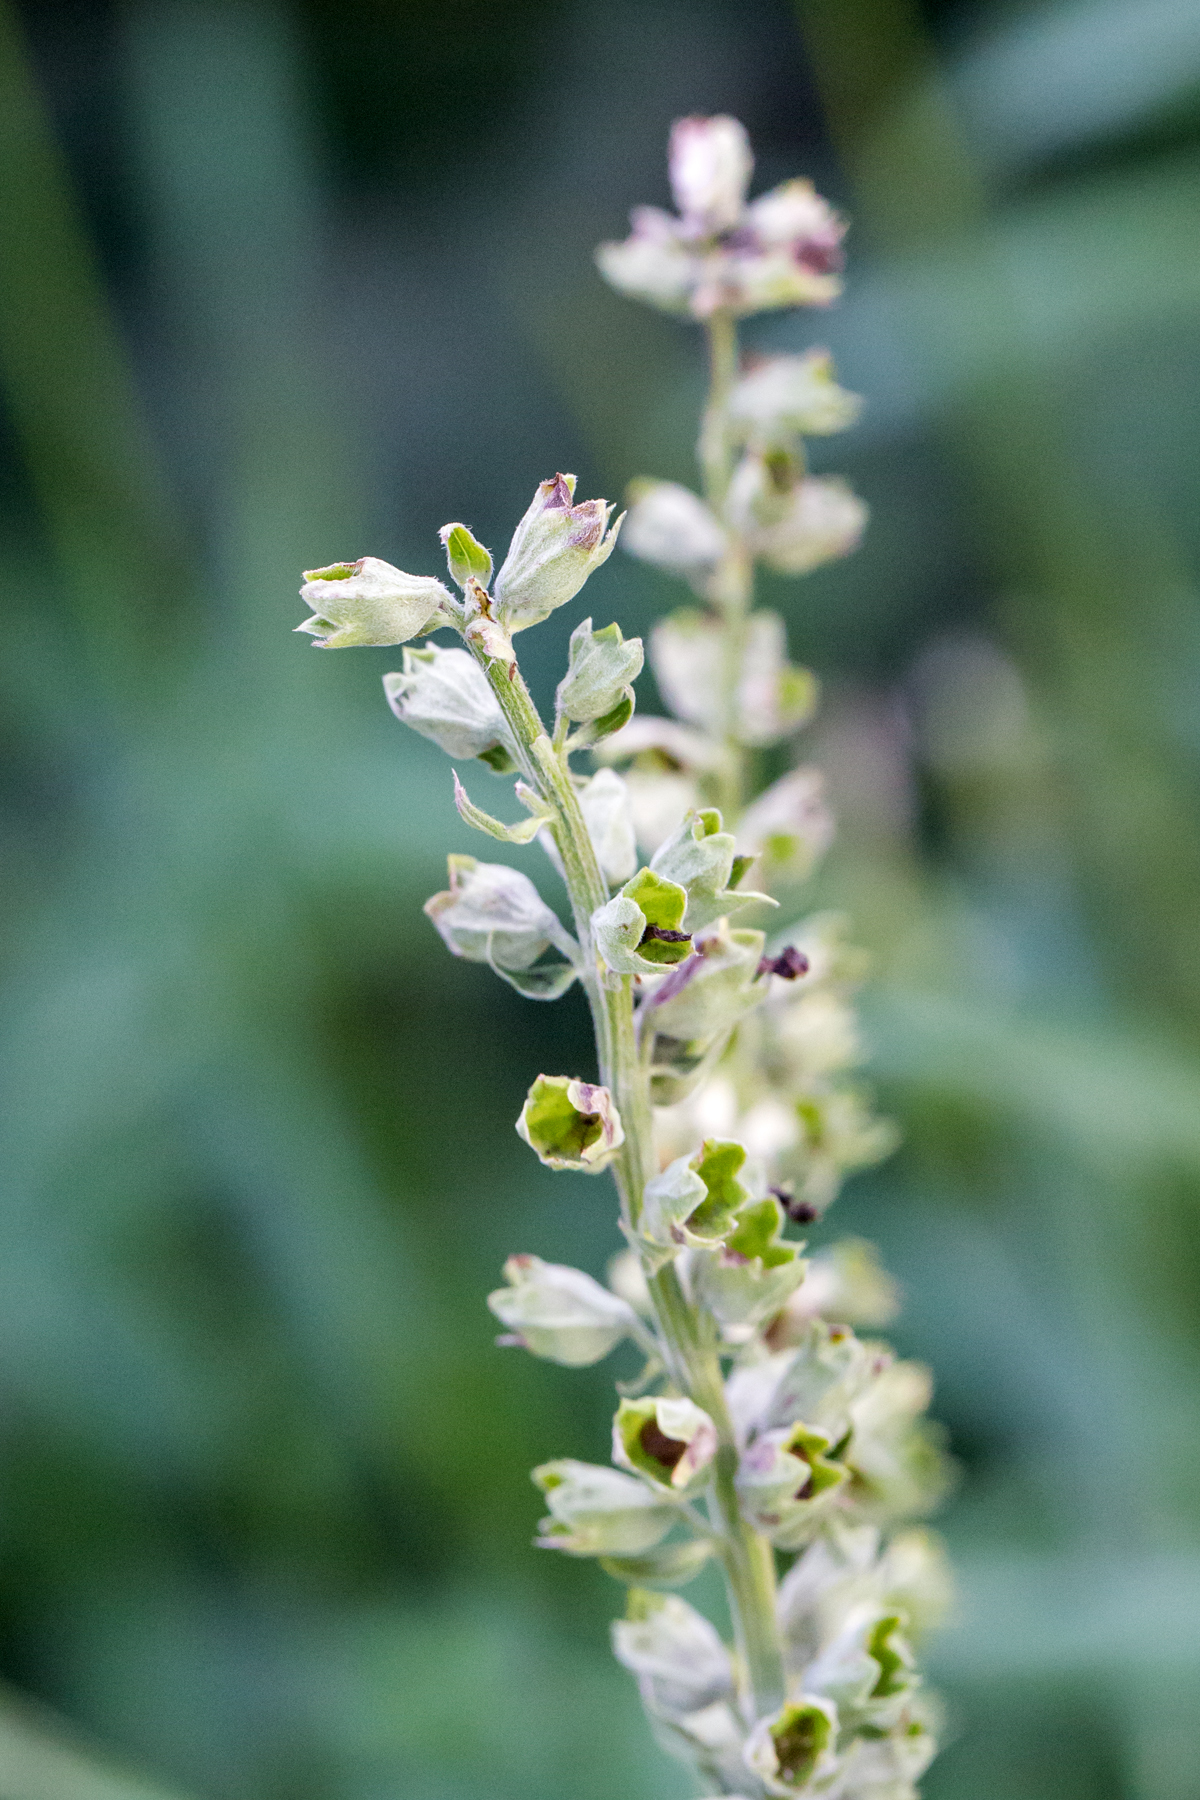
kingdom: Plantae
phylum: Tracheophyta
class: Magnoliopsida
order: Lamiales
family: Lamiaceae
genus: Teucrium
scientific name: Teucrium canadense
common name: American germander
